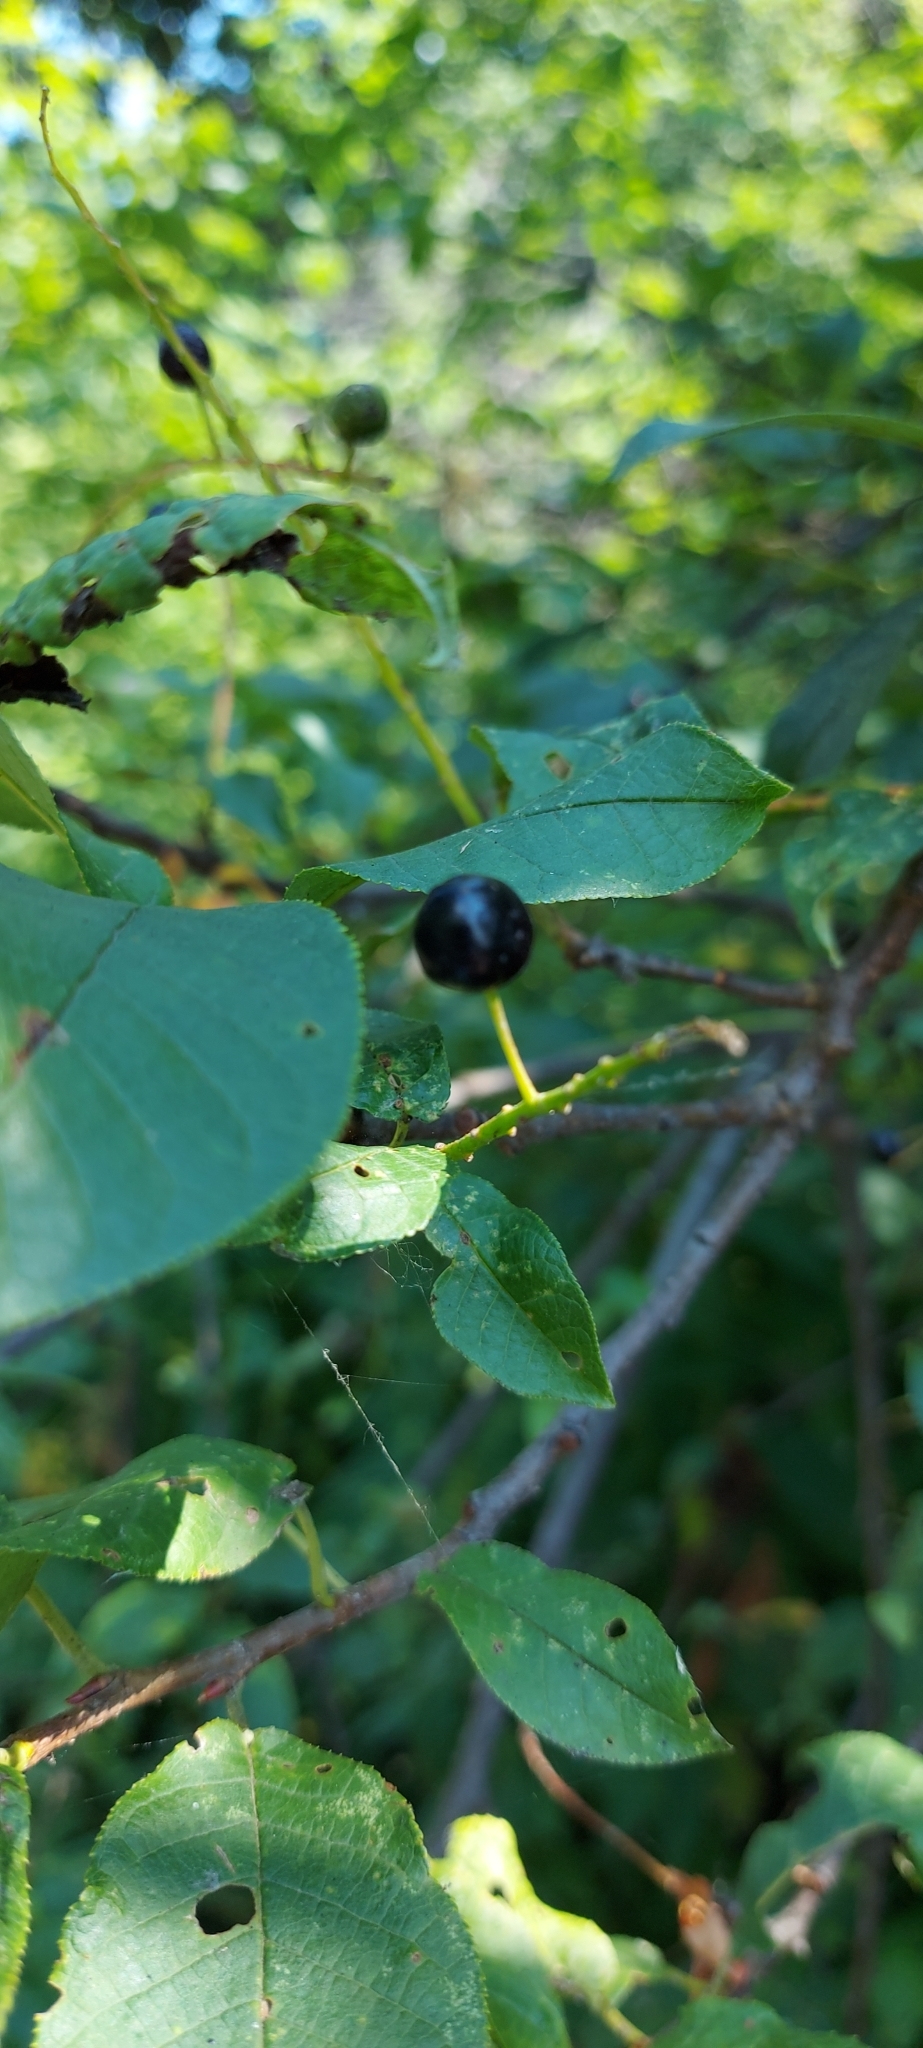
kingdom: Plantae
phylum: Tracheophyta
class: Magnoliopsida
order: Rosales
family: Rosaceae
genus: Prunus
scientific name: Prunus padus
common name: Bird cherry
